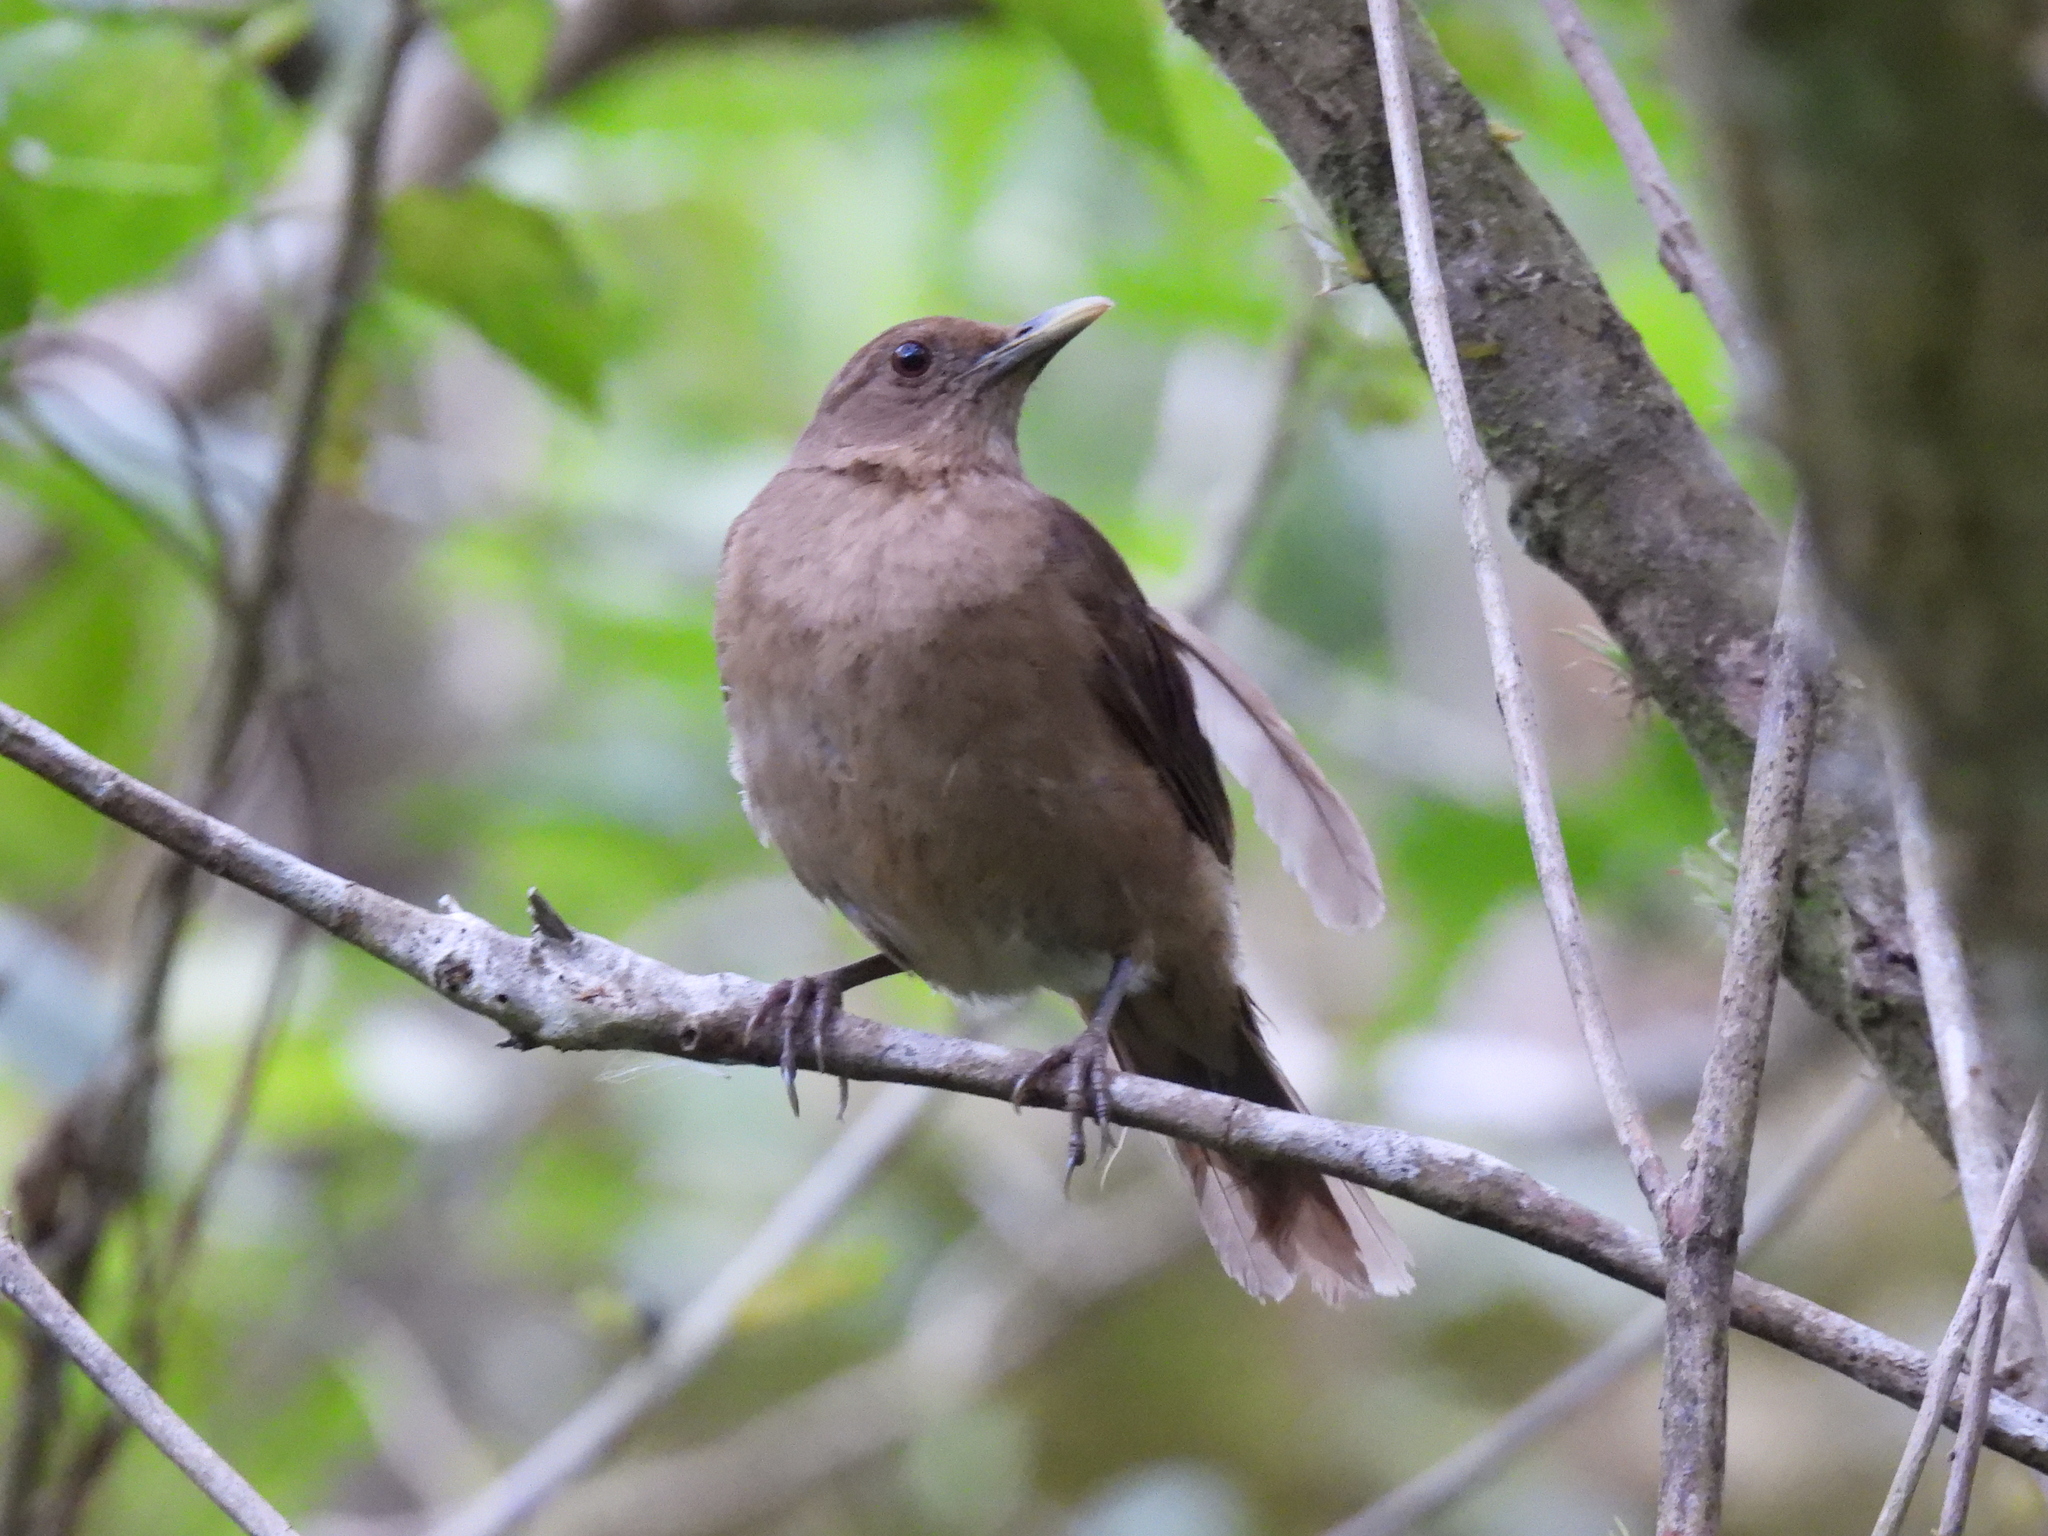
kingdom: Animalia
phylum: Chordata
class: Aves
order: Passeriformes
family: Turdidae
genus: Turdus
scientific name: Turdus grayi
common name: Clay-colored thrush
